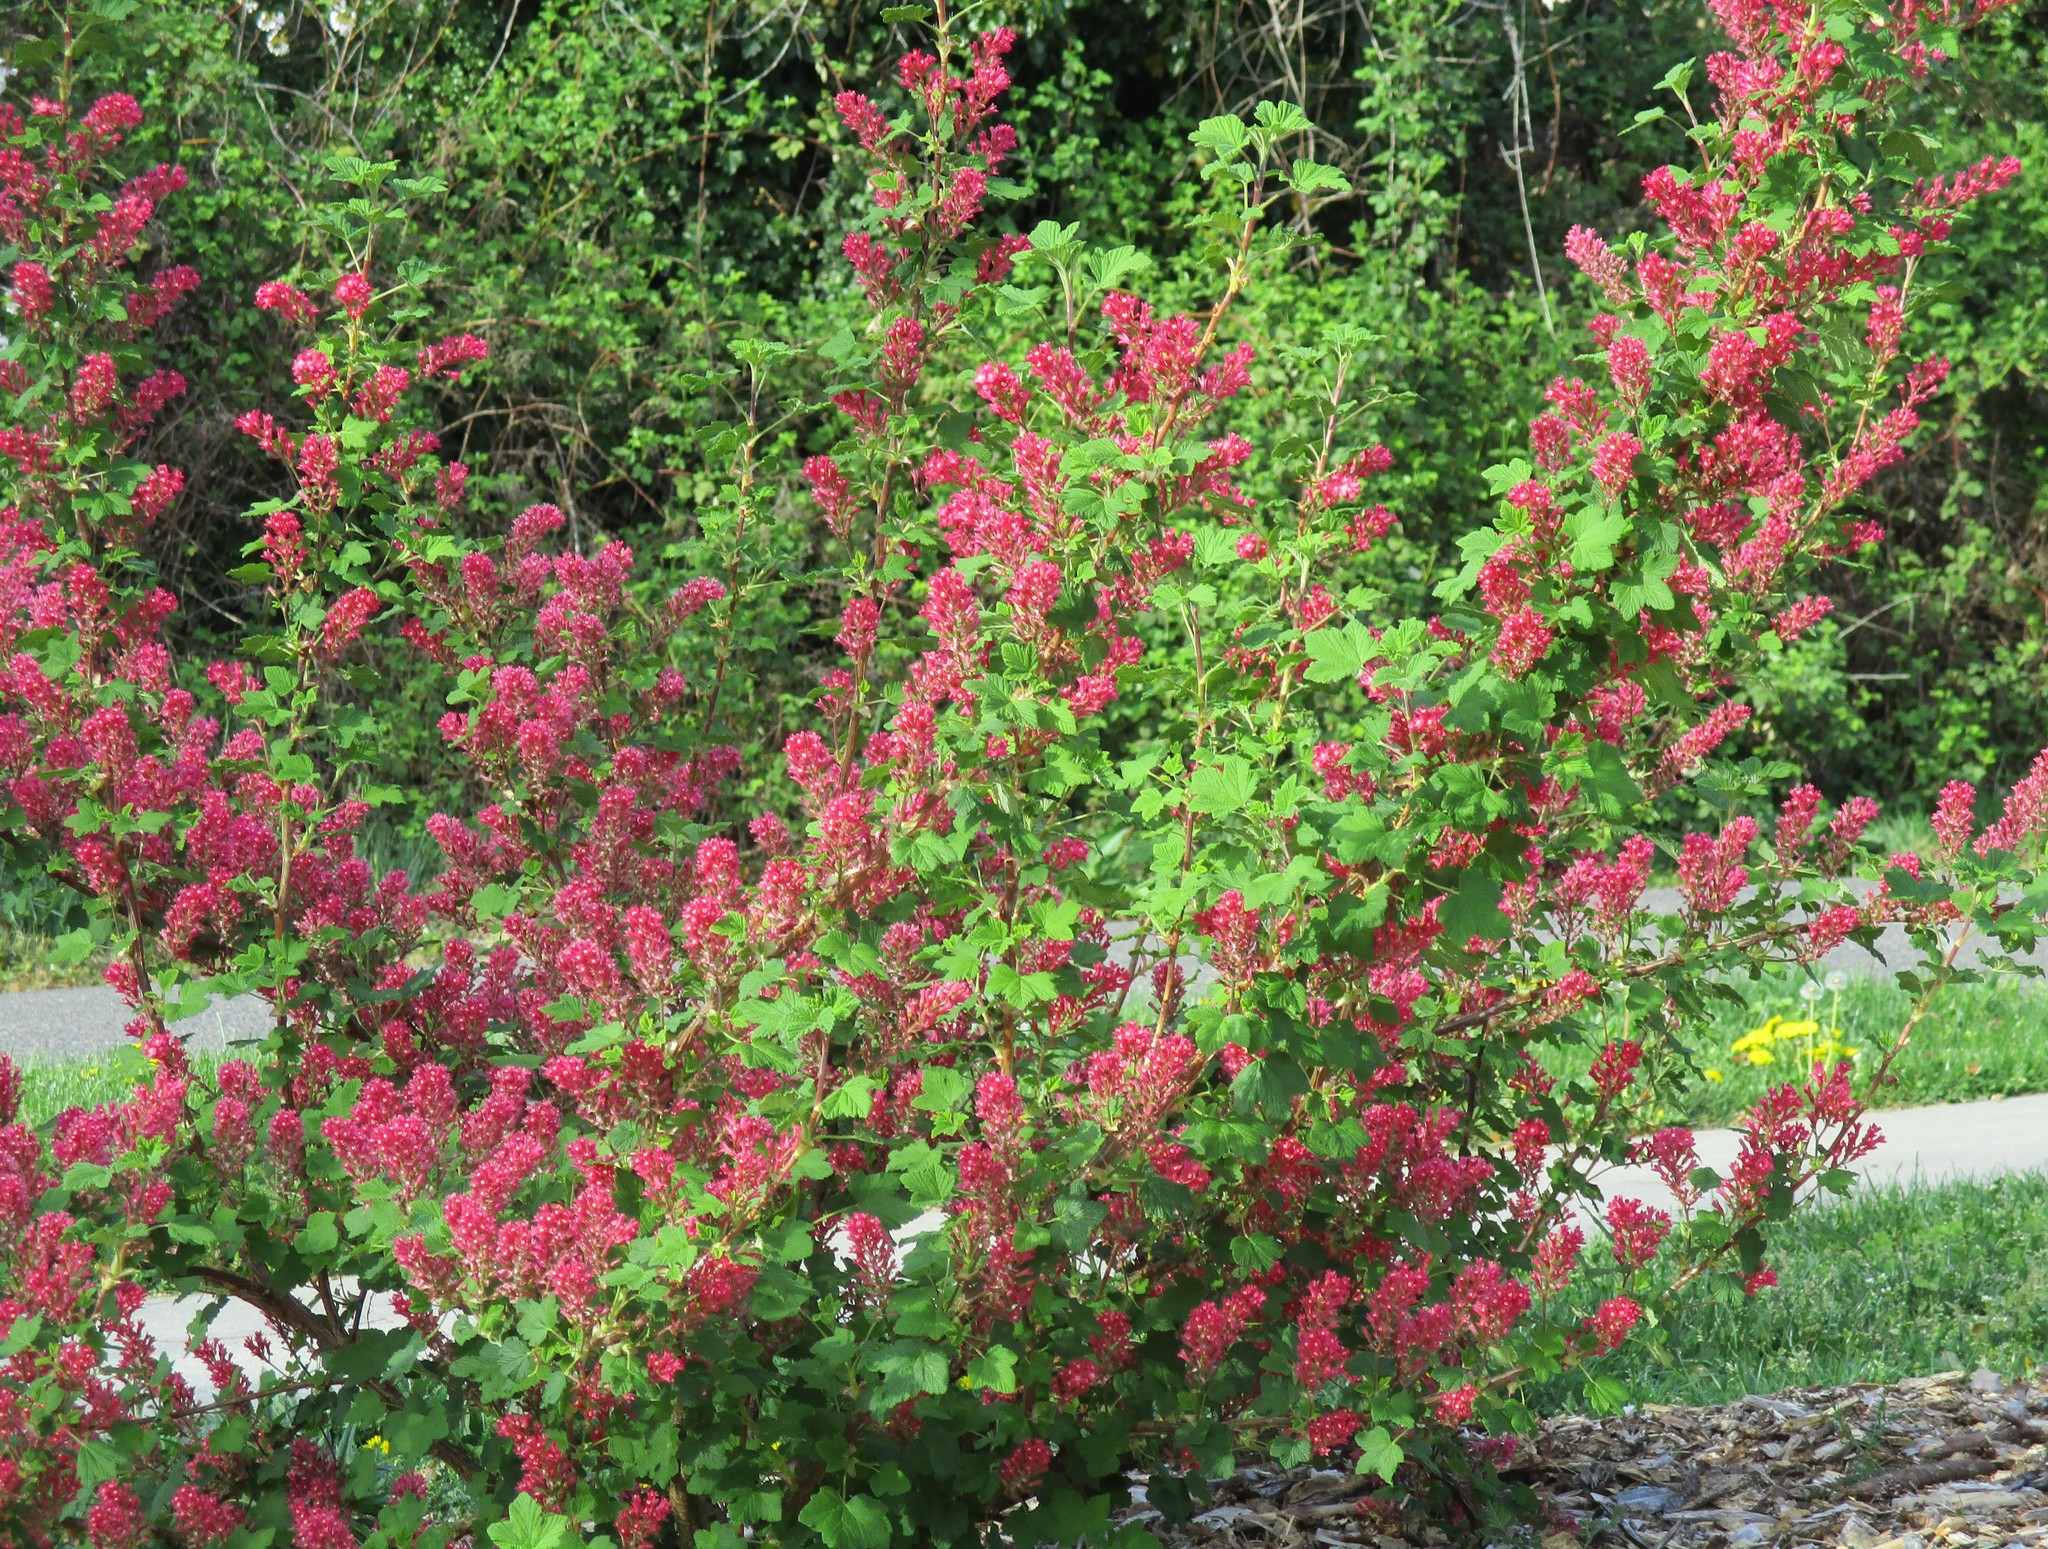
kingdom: Plantae
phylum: Tracheophyta
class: Magnoliopsida
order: Saxifragales
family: Grossulariaceae
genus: Ribes
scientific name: Ribes sanguineum
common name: Flowering currant
